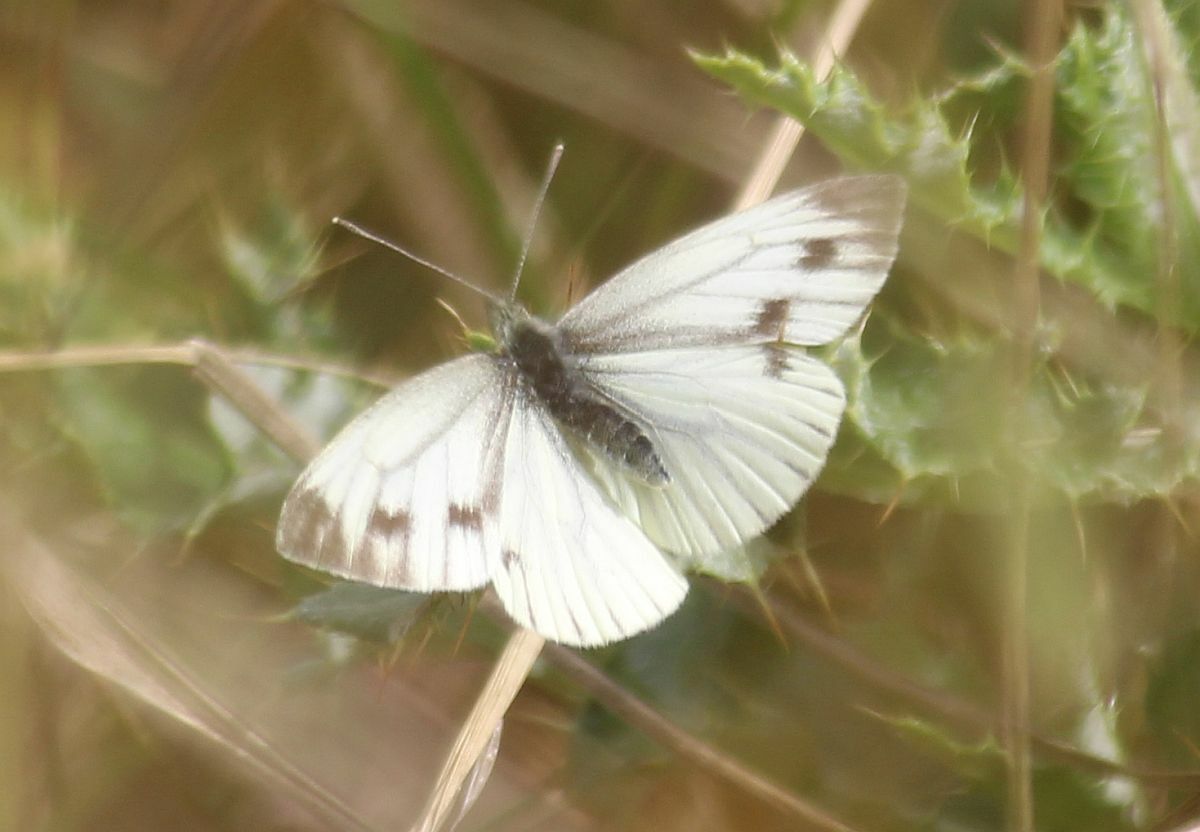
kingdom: Animalia
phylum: Arthropoda
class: Insecta
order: Lepidoptera
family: Pieridae
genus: Pieris
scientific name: Pieris napi
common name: Green-veined white
